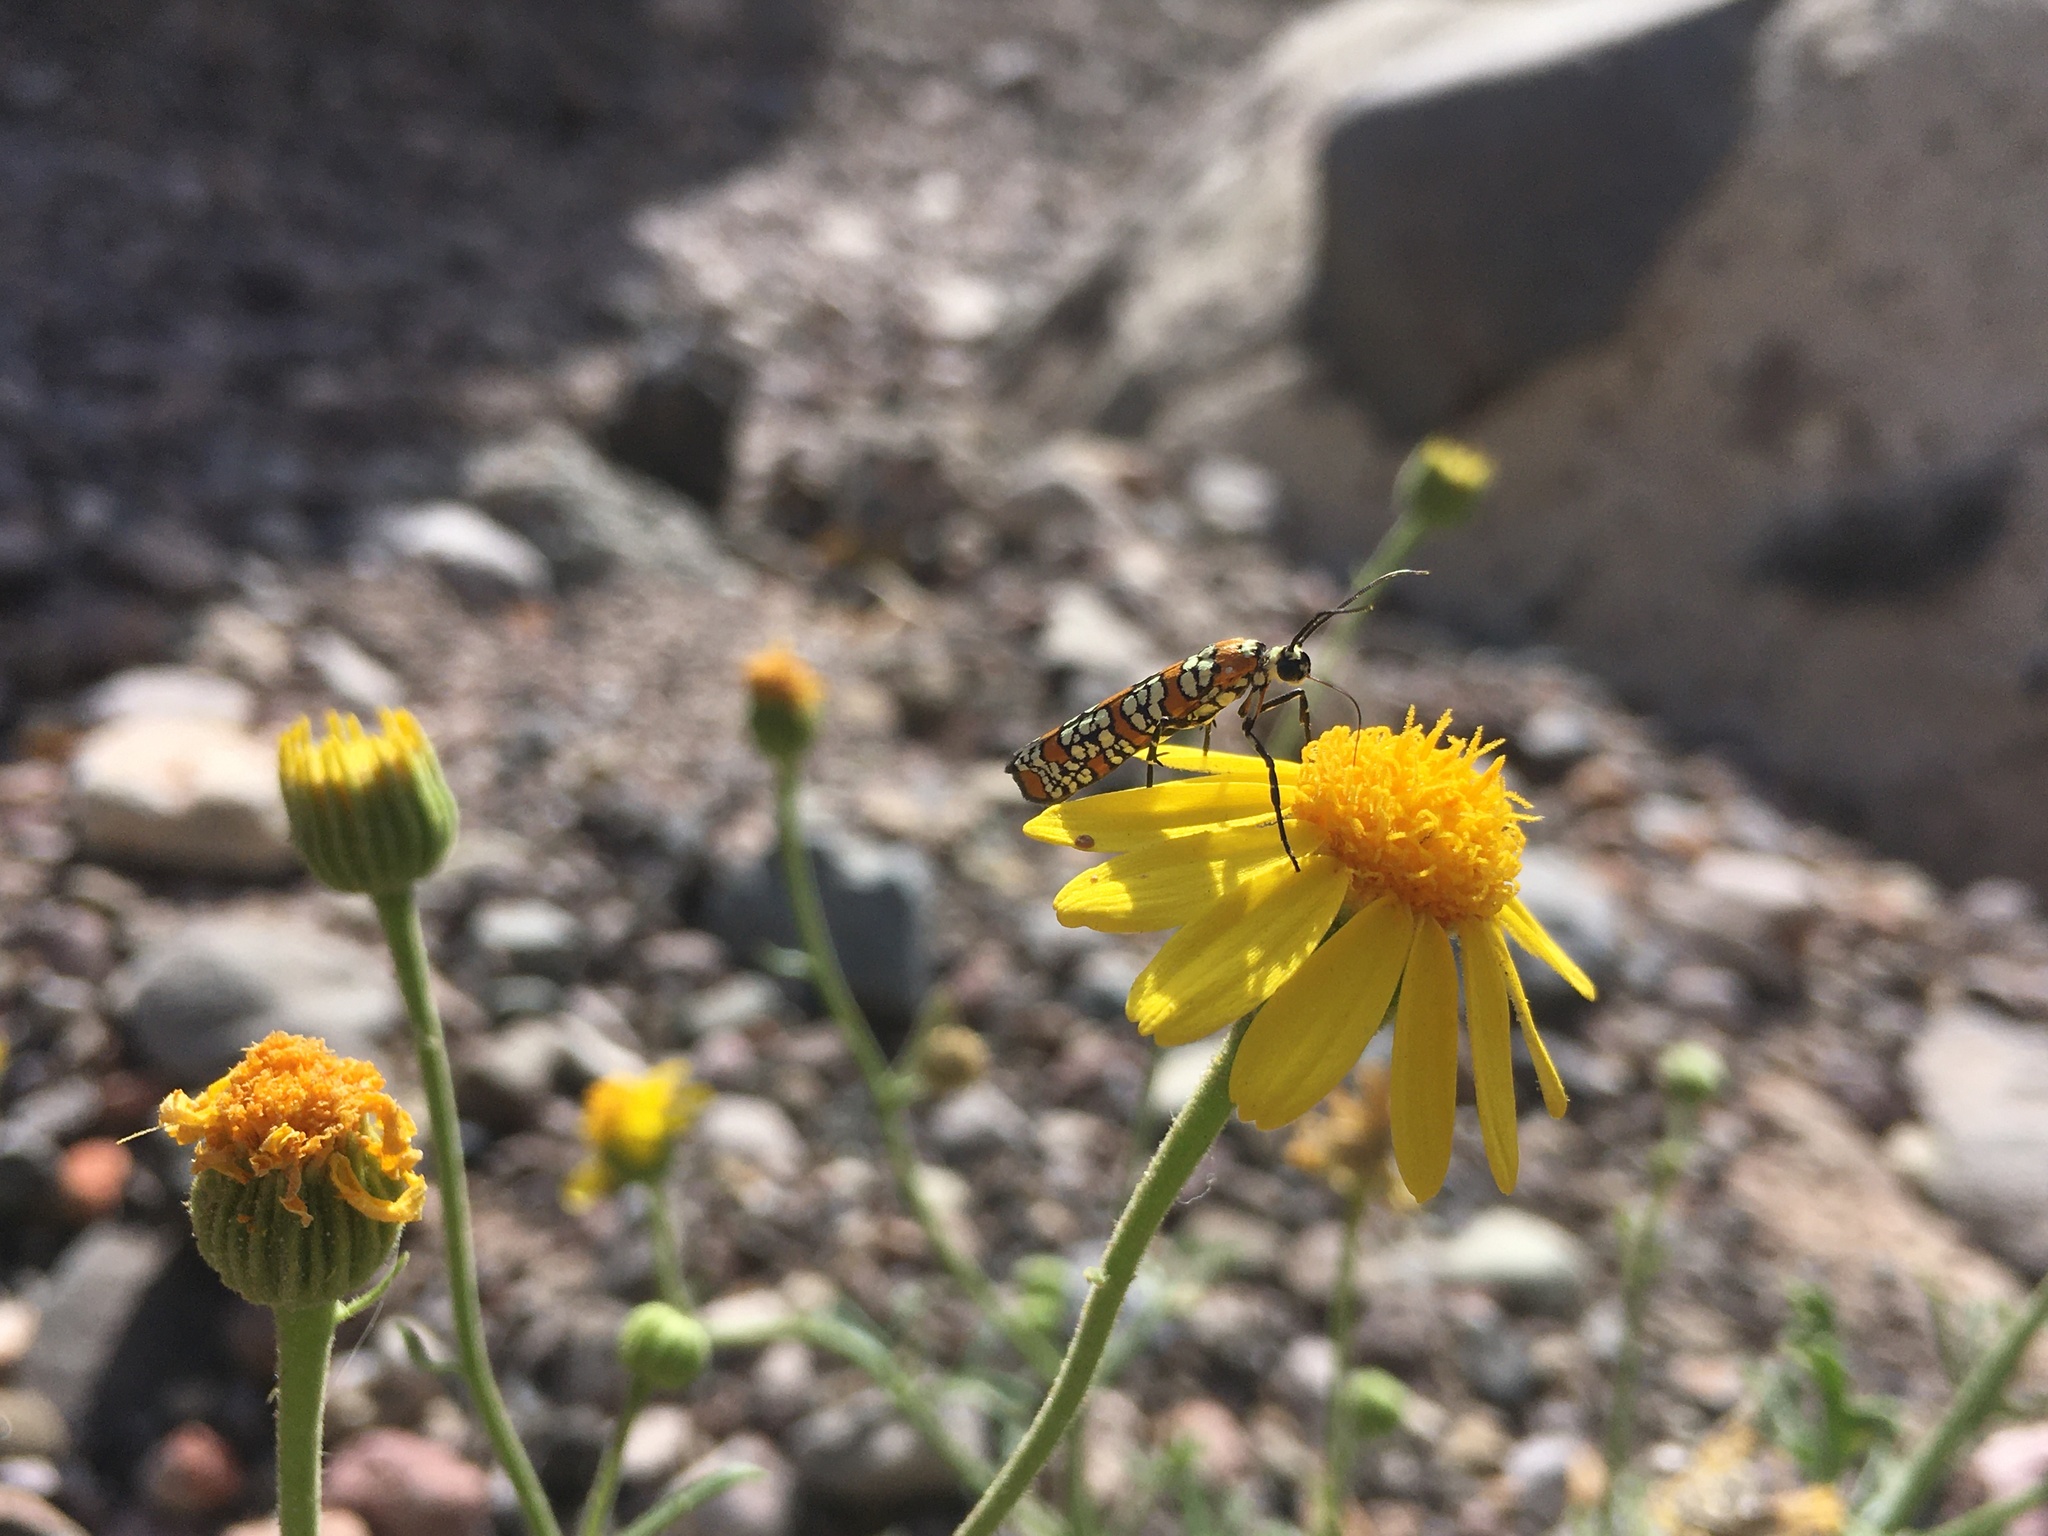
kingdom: Animalia
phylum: Arthropoda
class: Insecta
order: Lepidoptera
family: Attevidae
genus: Atteva
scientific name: Atteva punctella
